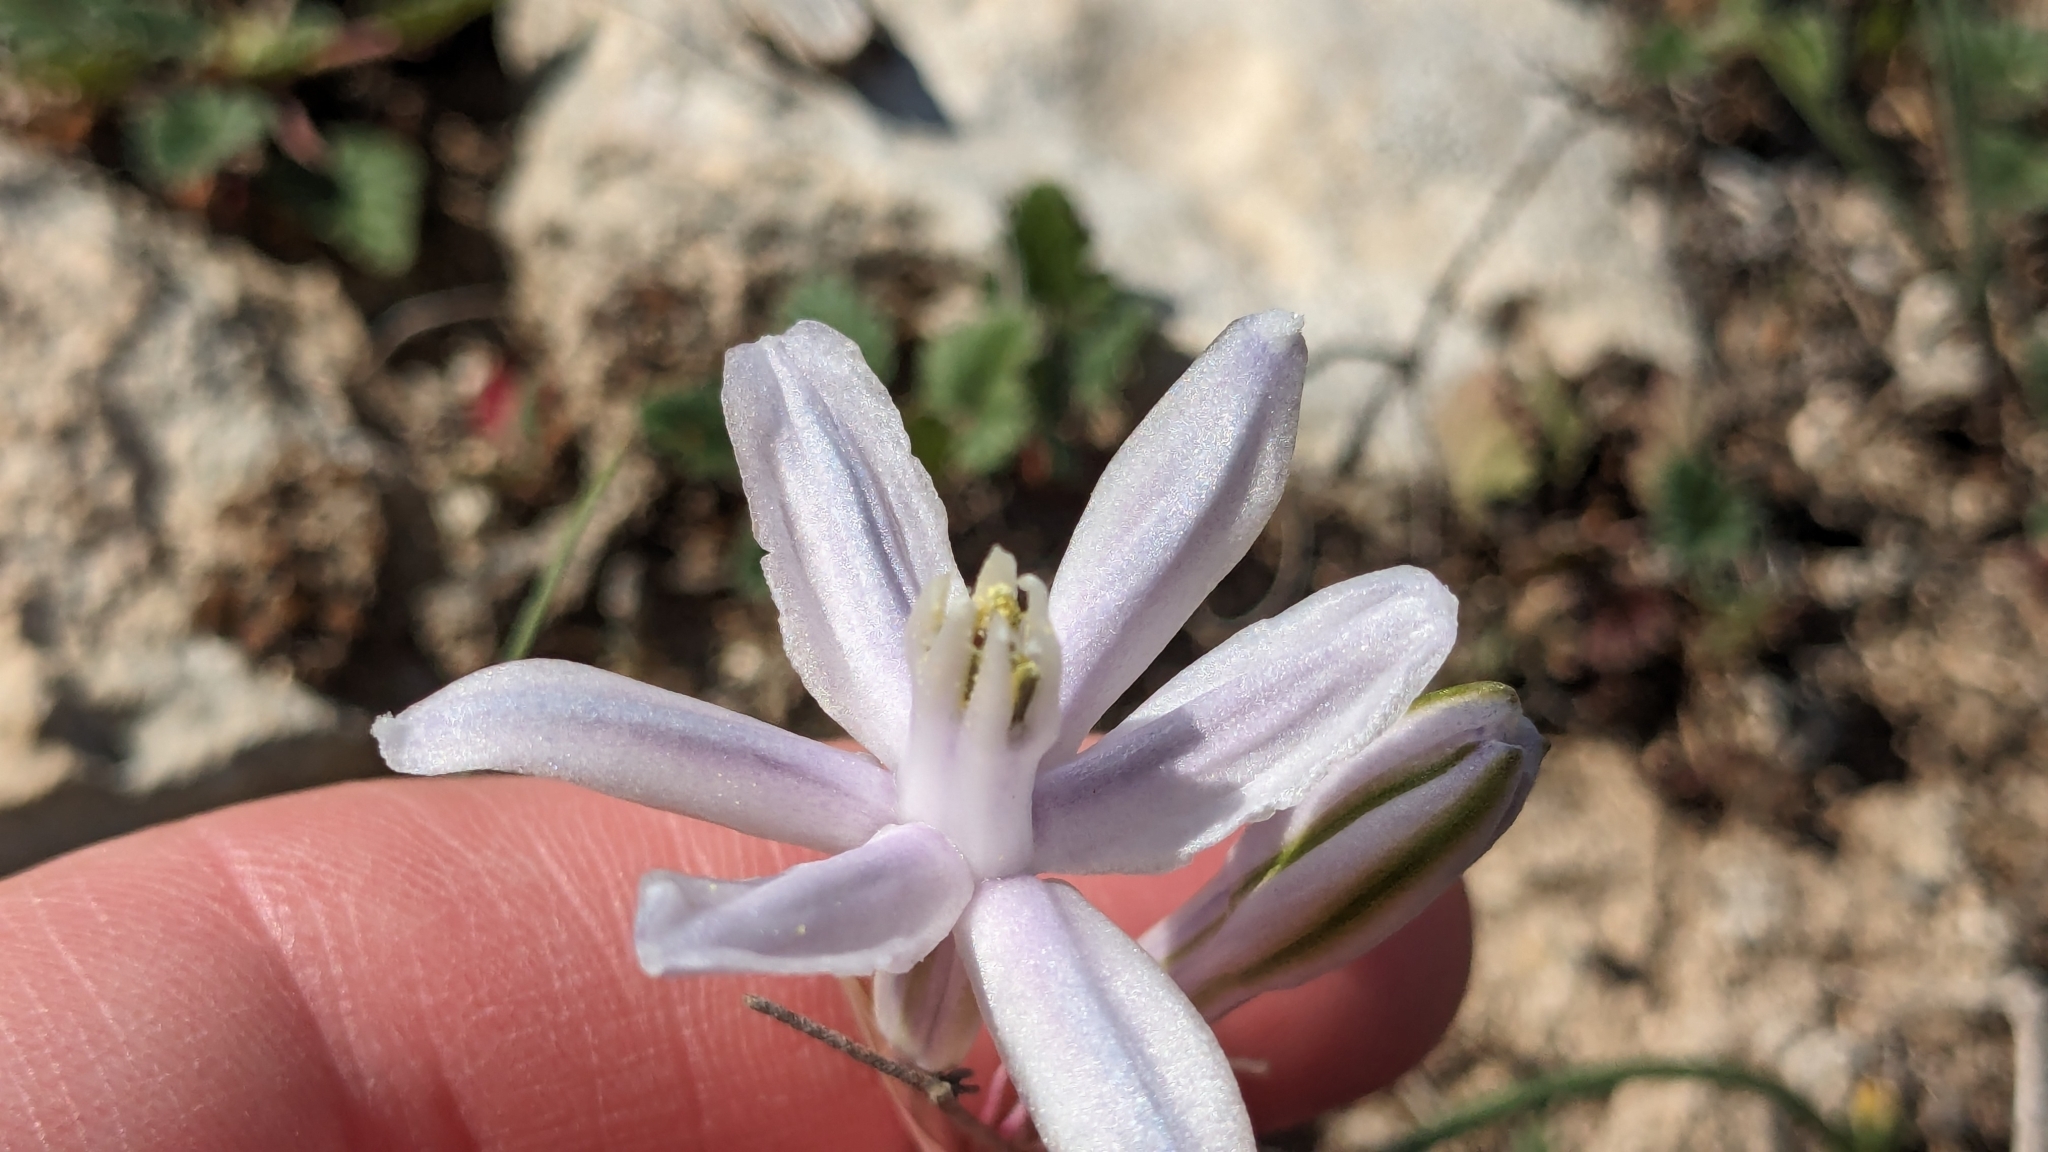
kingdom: Plantae
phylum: Tracheophyta
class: Liliopsida
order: Asparagales
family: Asparagaceae
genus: Androstephium
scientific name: Androstephium coeruleum
